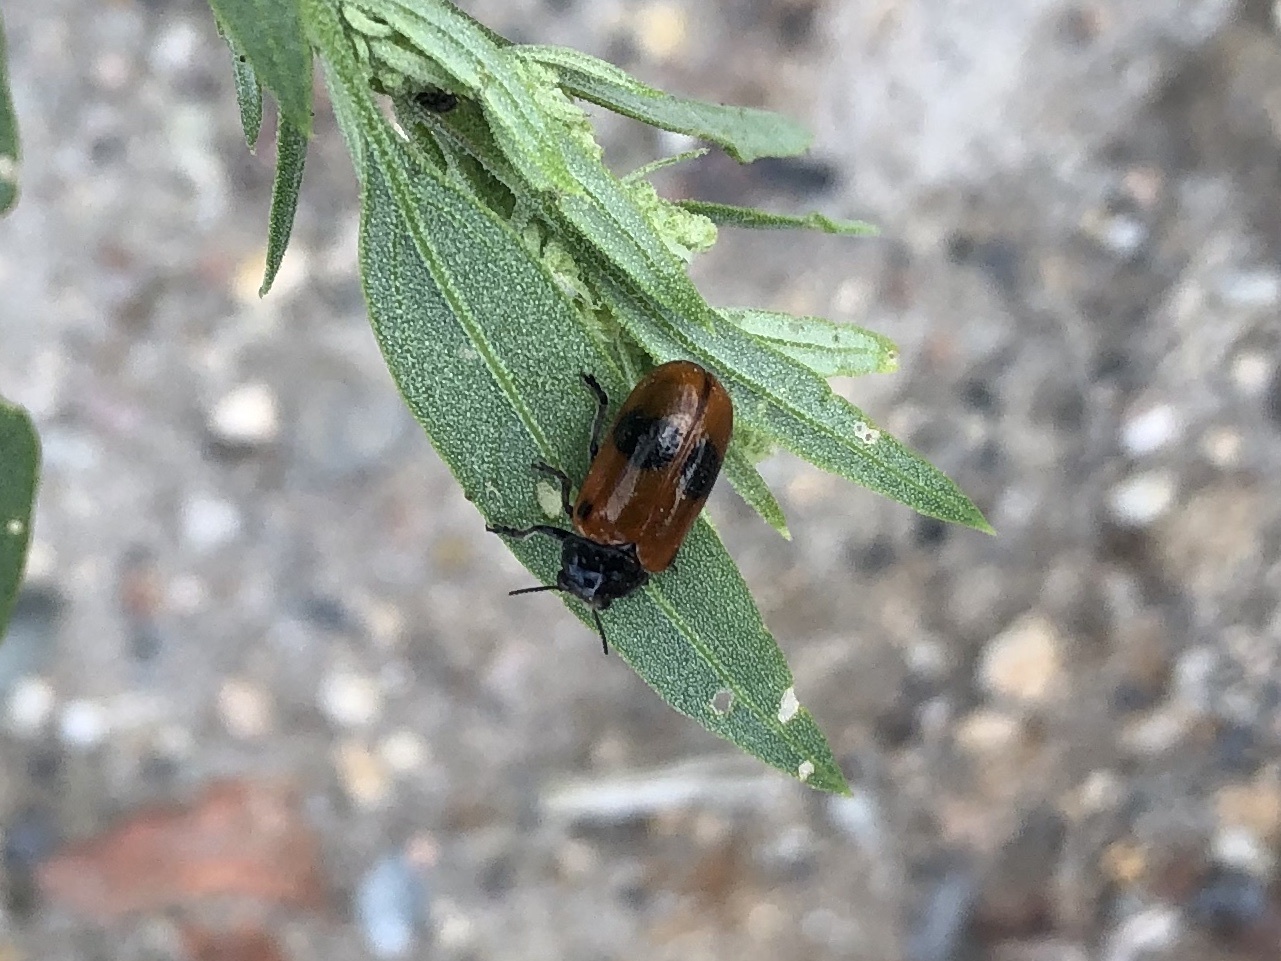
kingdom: Animalia
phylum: Arthropoda
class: Insecta
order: Coleoptera
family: Chrysomelidae
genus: Clytra
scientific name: Clytra laeviuscula
